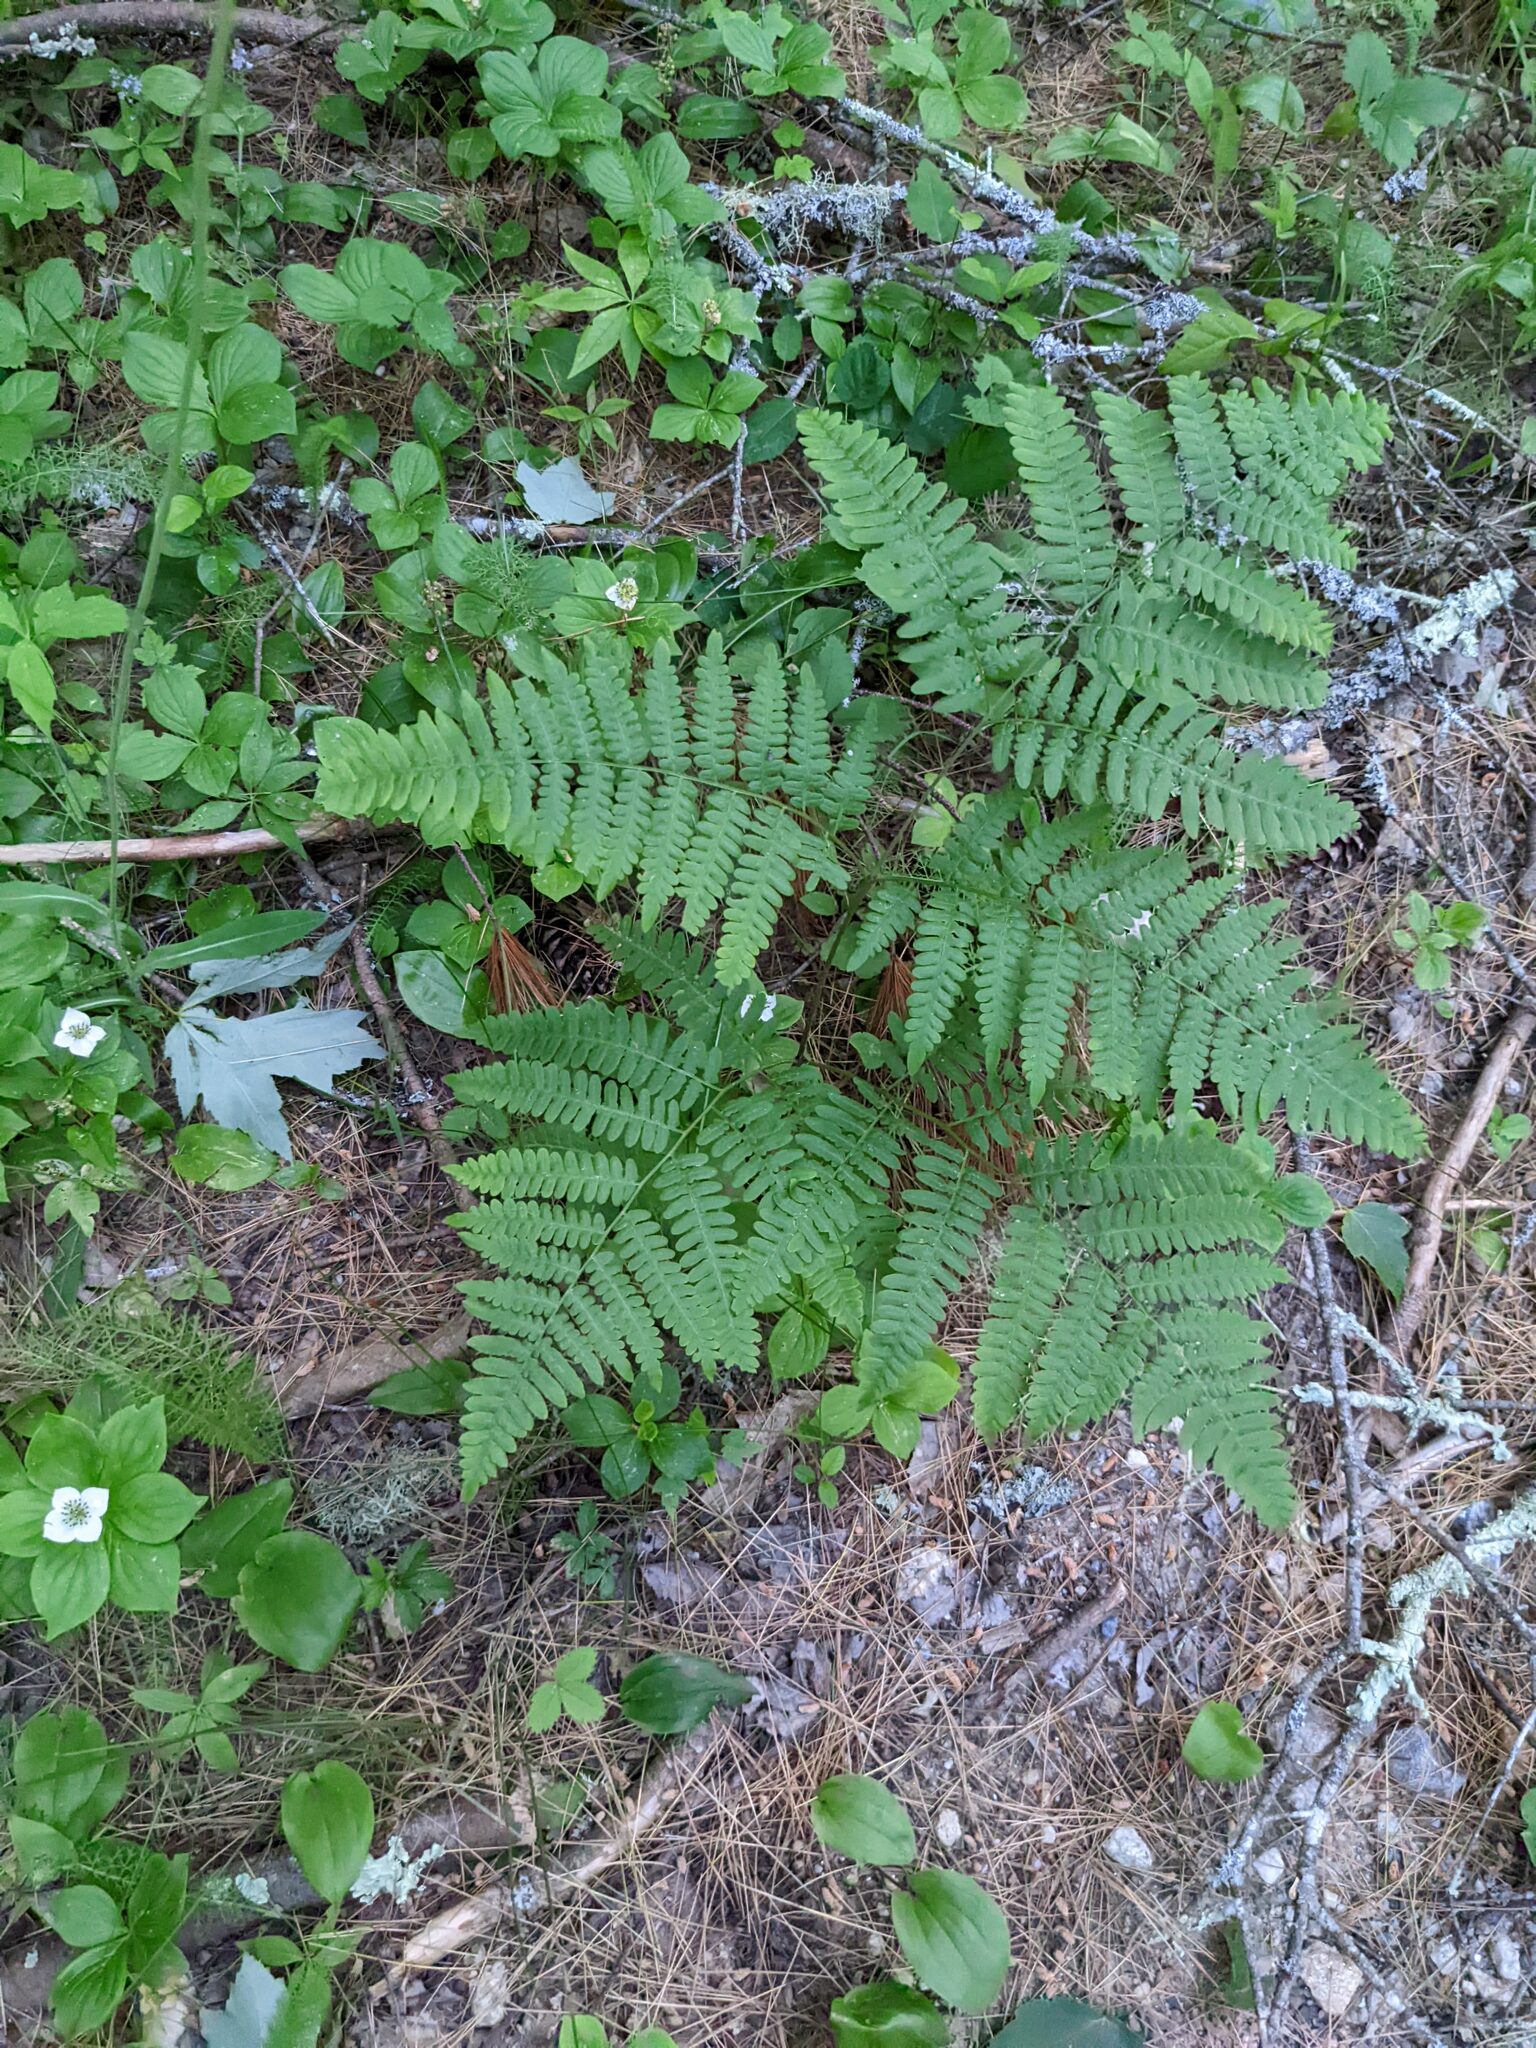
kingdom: Plantae
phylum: Tracheophyta
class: Polypodiopsida
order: Polypodiales
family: Dennstaedtiaceae
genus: Pteridium
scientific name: Pteridium aquilinum
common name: Bracken
